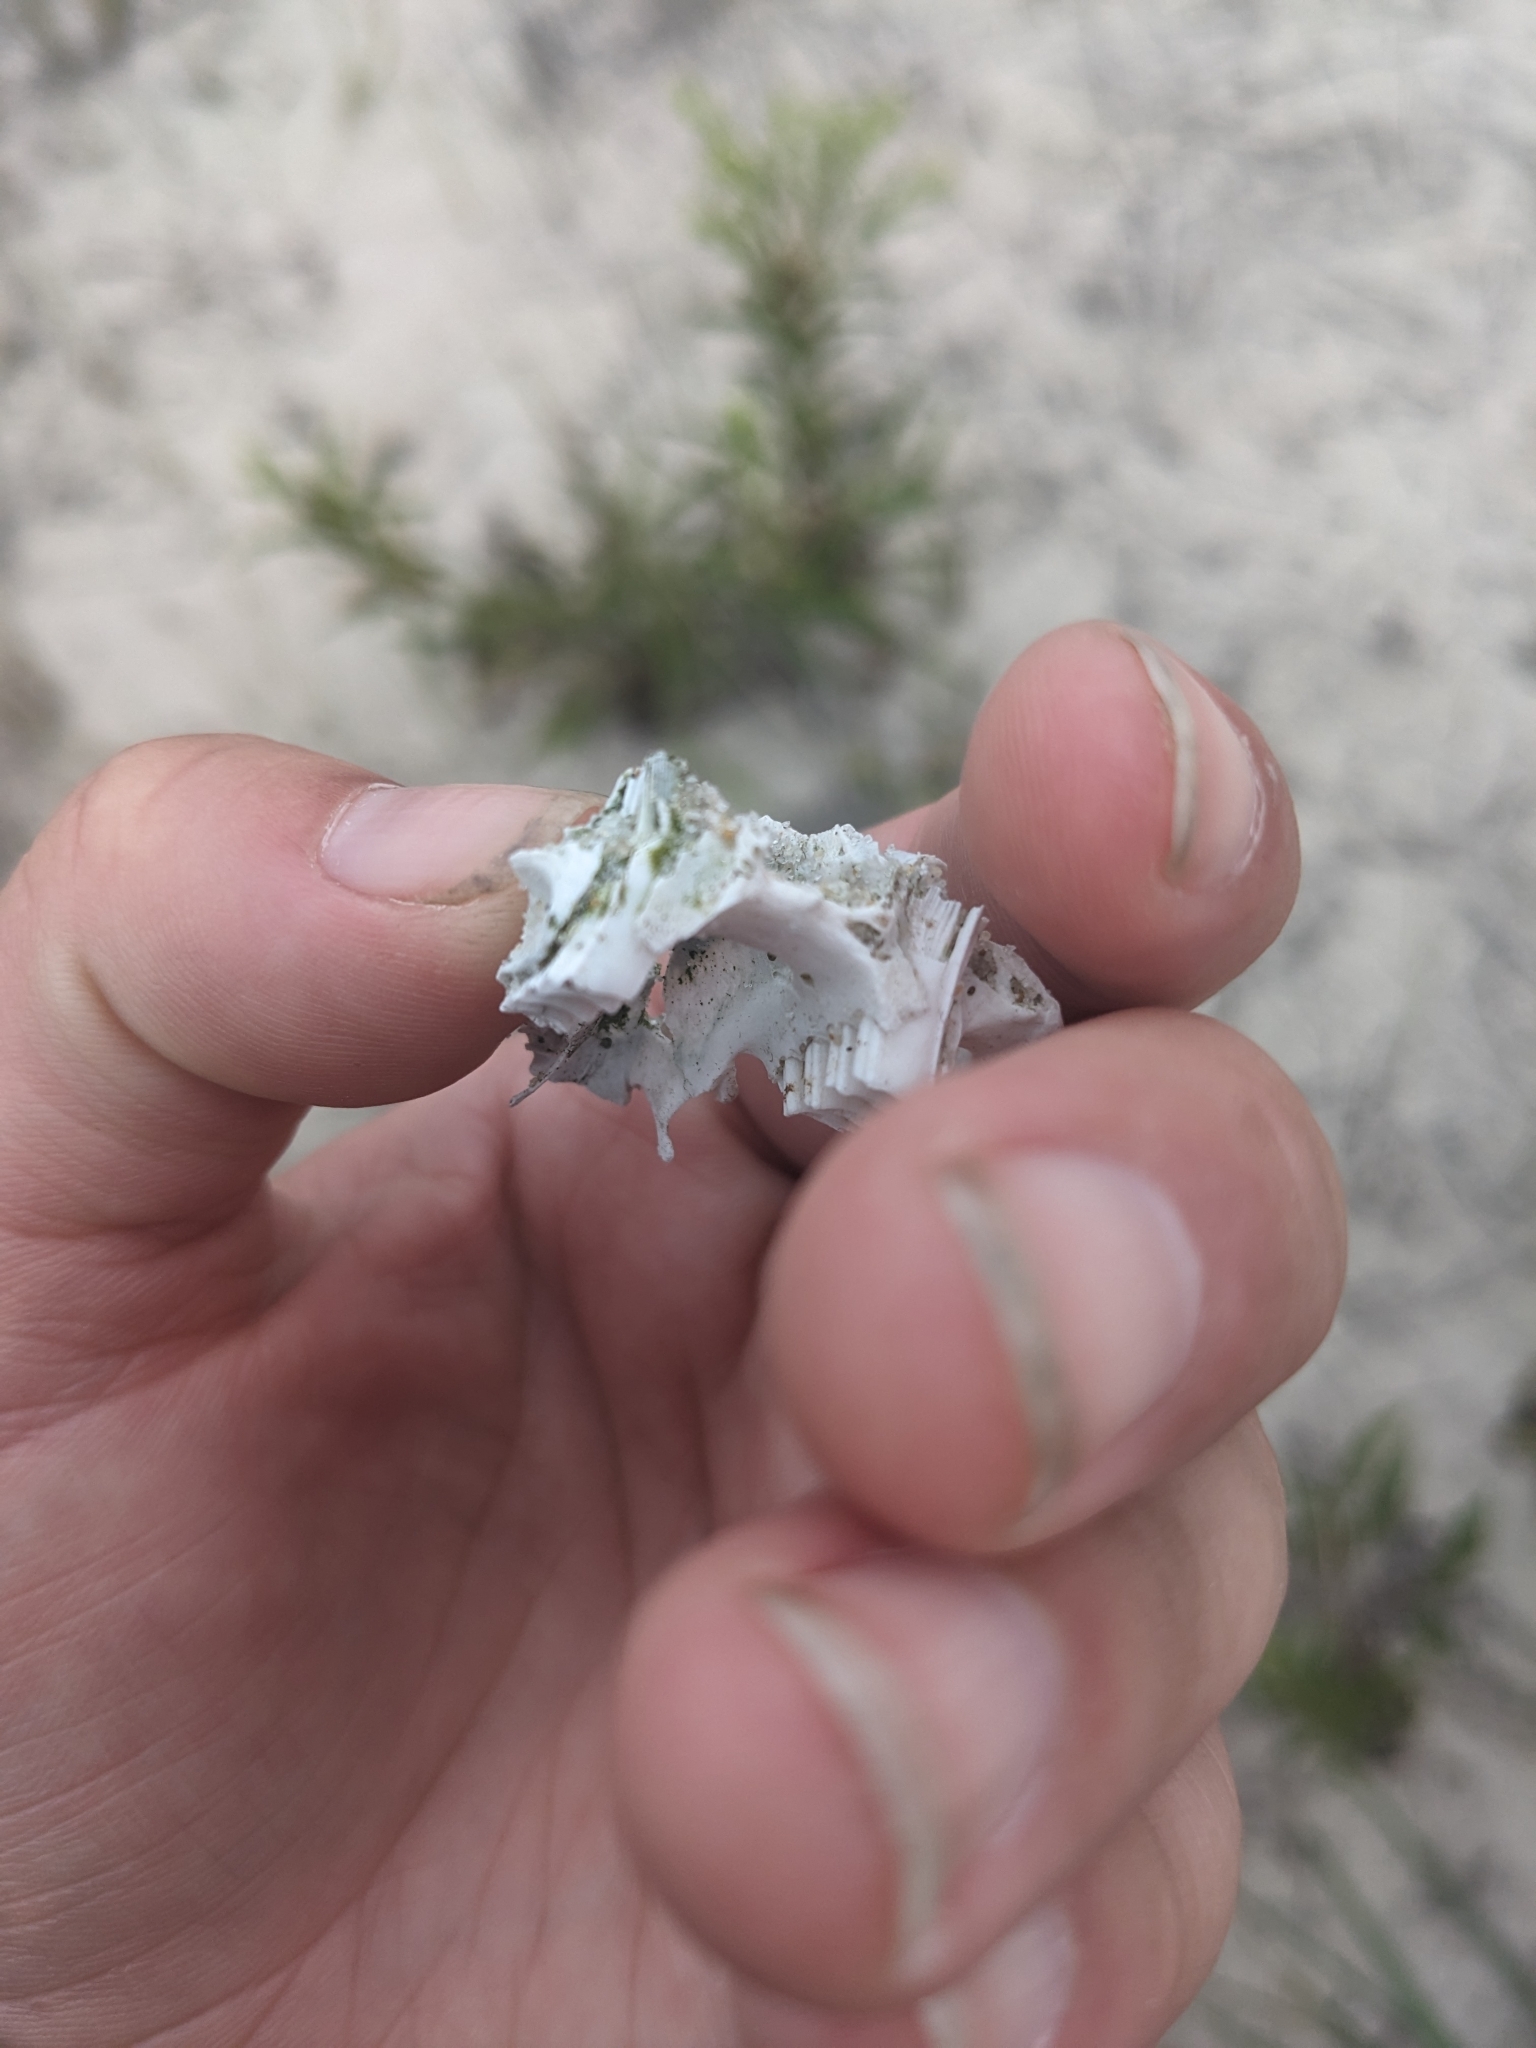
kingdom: Animalia
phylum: Chordata
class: Mammalia
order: Lagomorpha
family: Leporidae
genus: Sylvilagus
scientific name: Sylvilagus floridanus
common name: Eastern cottontail
